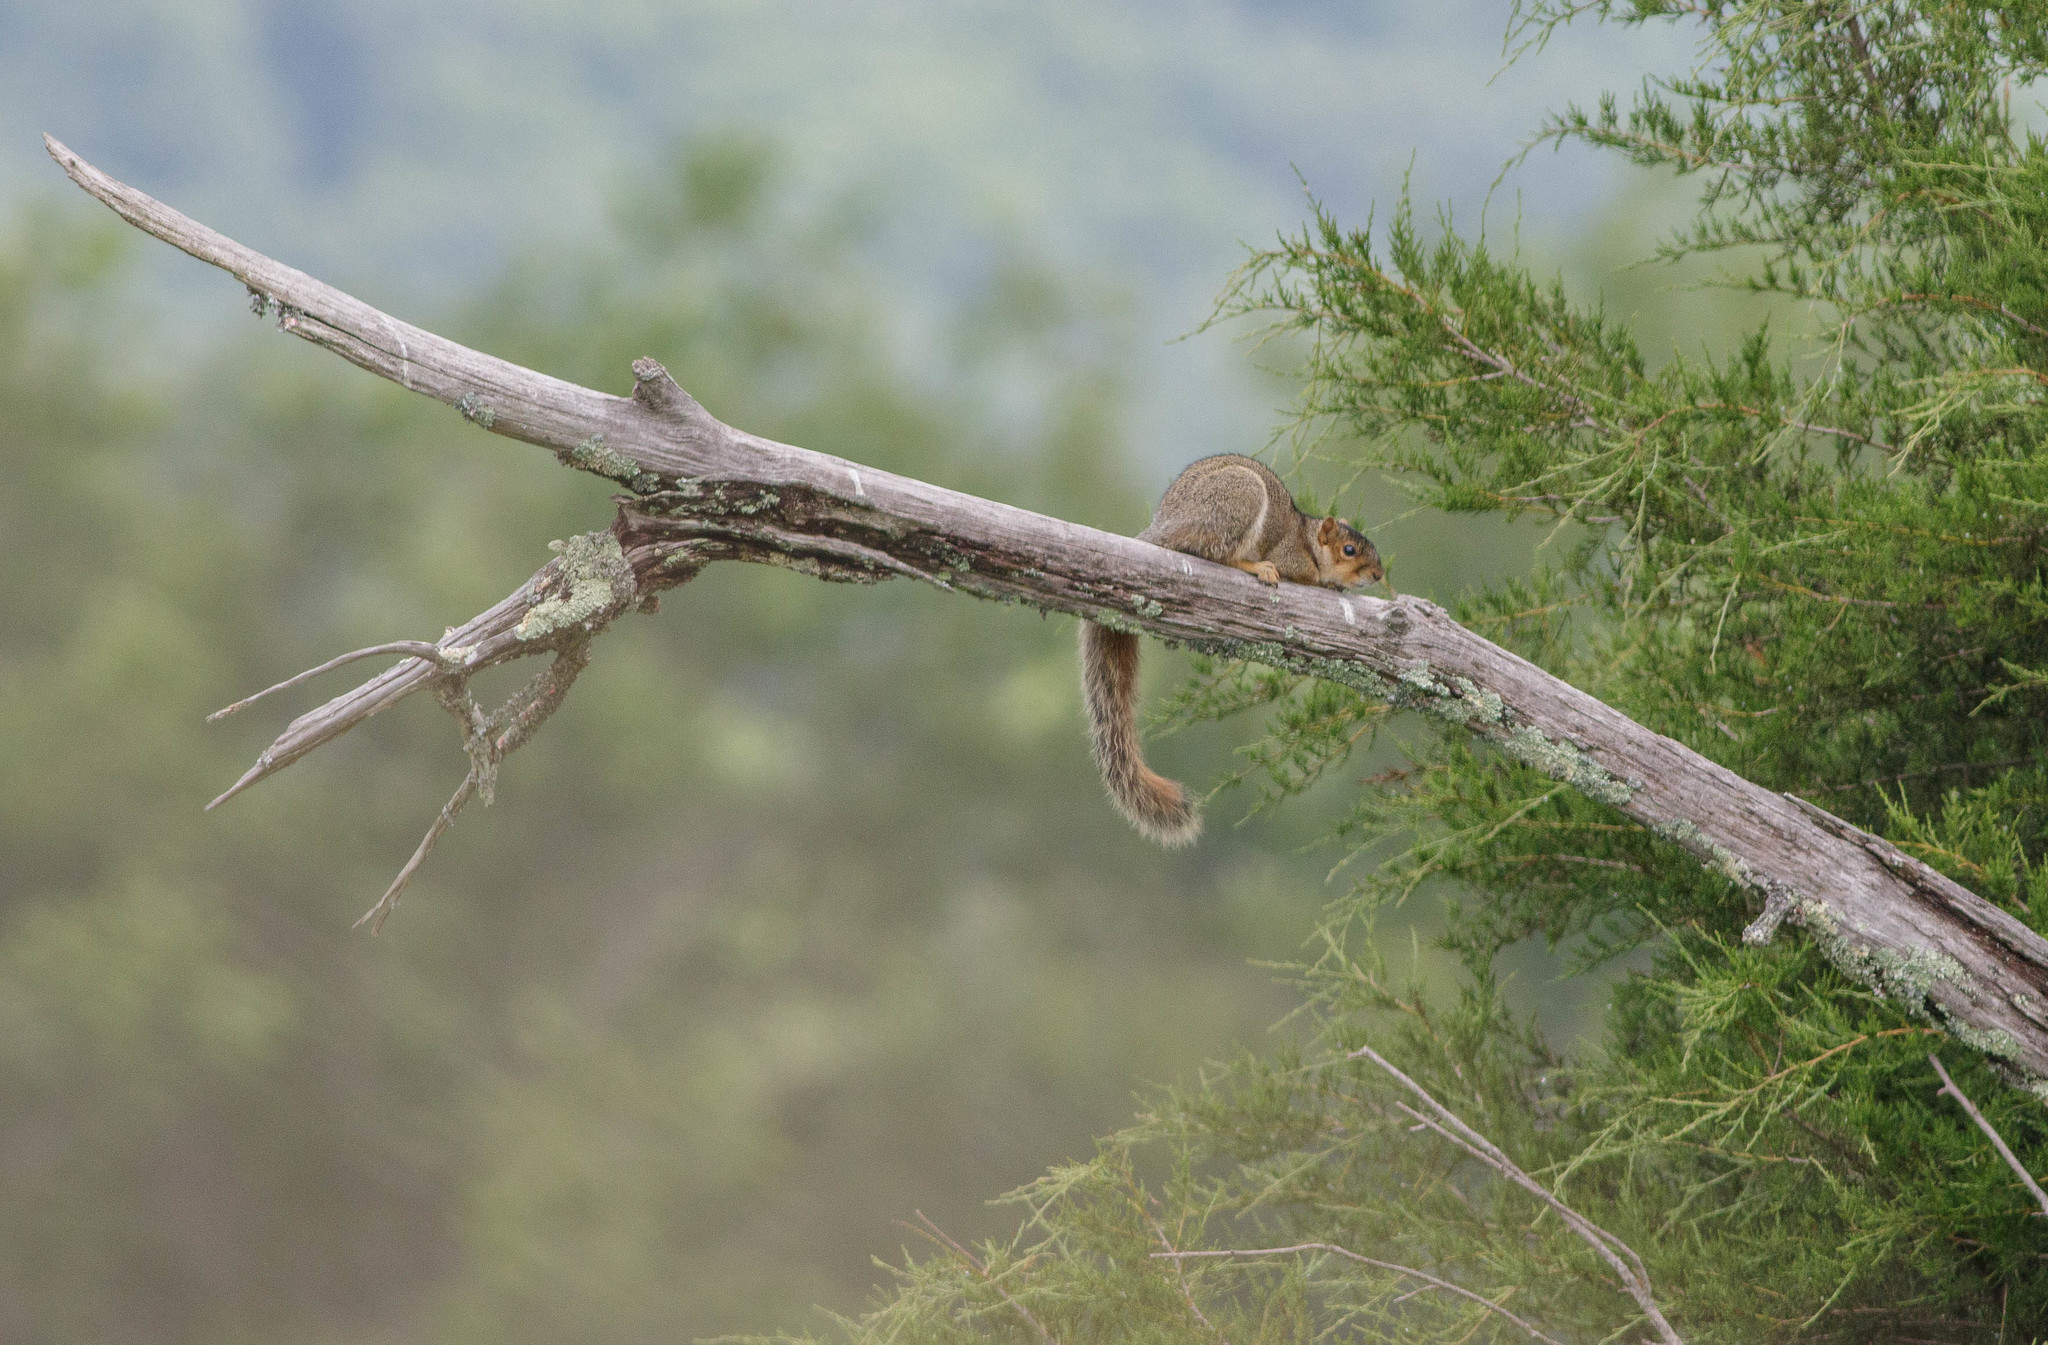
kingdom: Animalia
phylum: Chordata
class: Mammalia
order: Rodentia
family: Sciuridae
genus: Sciurus
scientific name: Sciurus niger
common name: Fox squirrel
